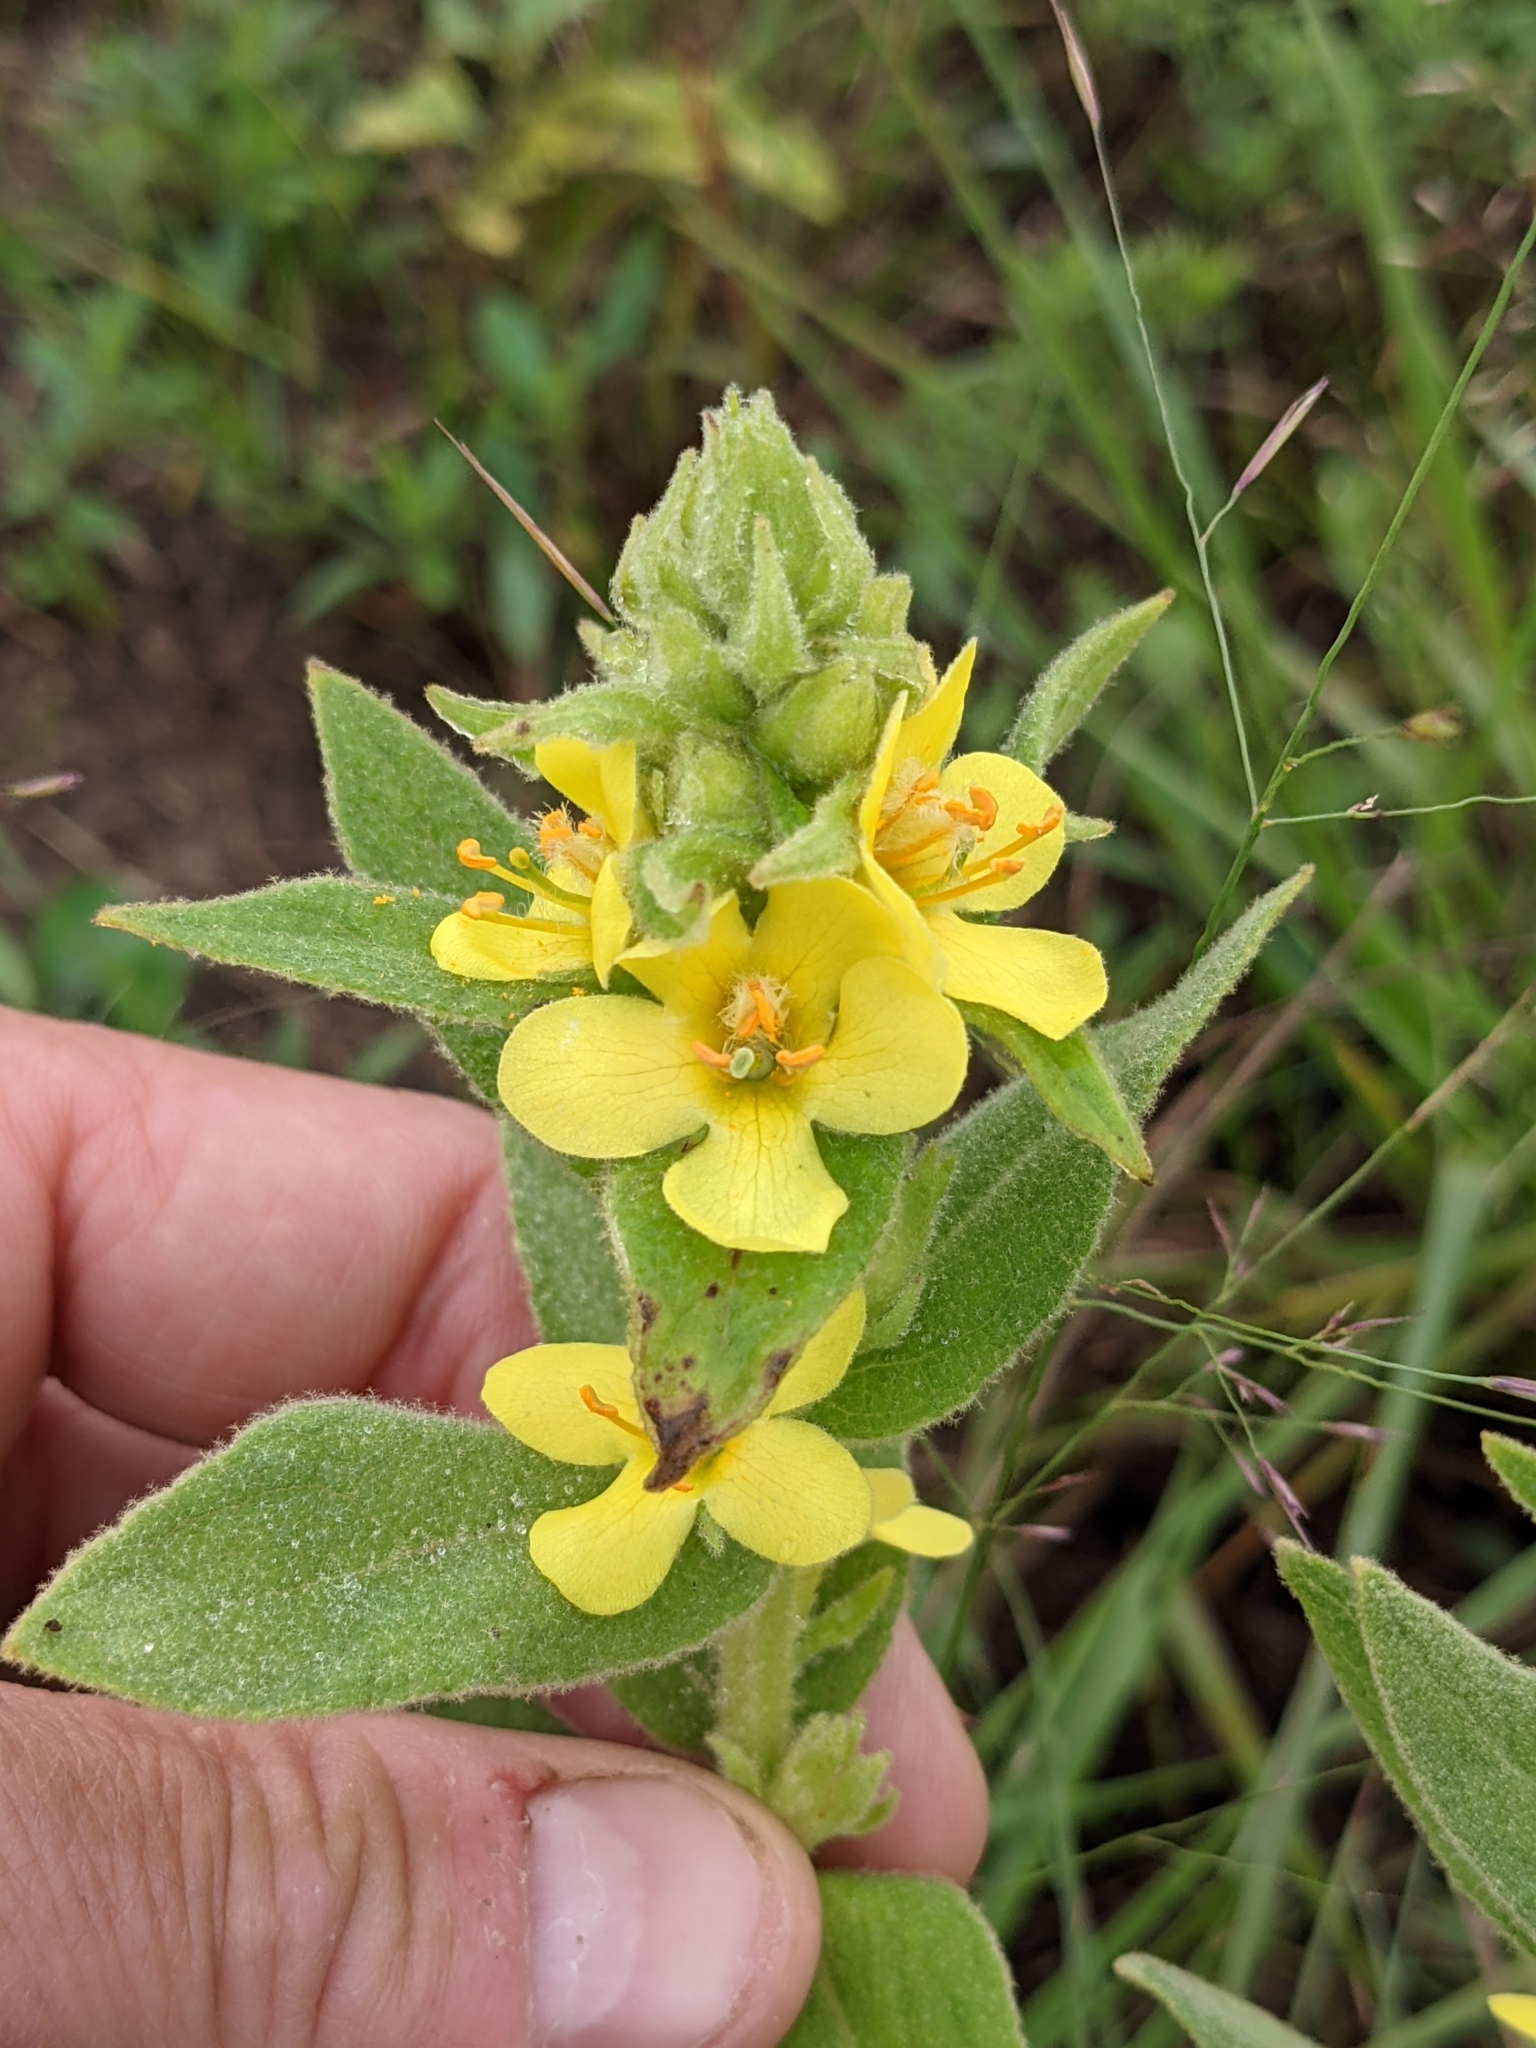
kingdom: Plantae
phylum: Tracheophyta
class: Magnoliopsida
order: Lamiales
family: Scrophulariaceae
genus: Verbascum
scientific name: Verbascum thapsus
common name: Common mullein
